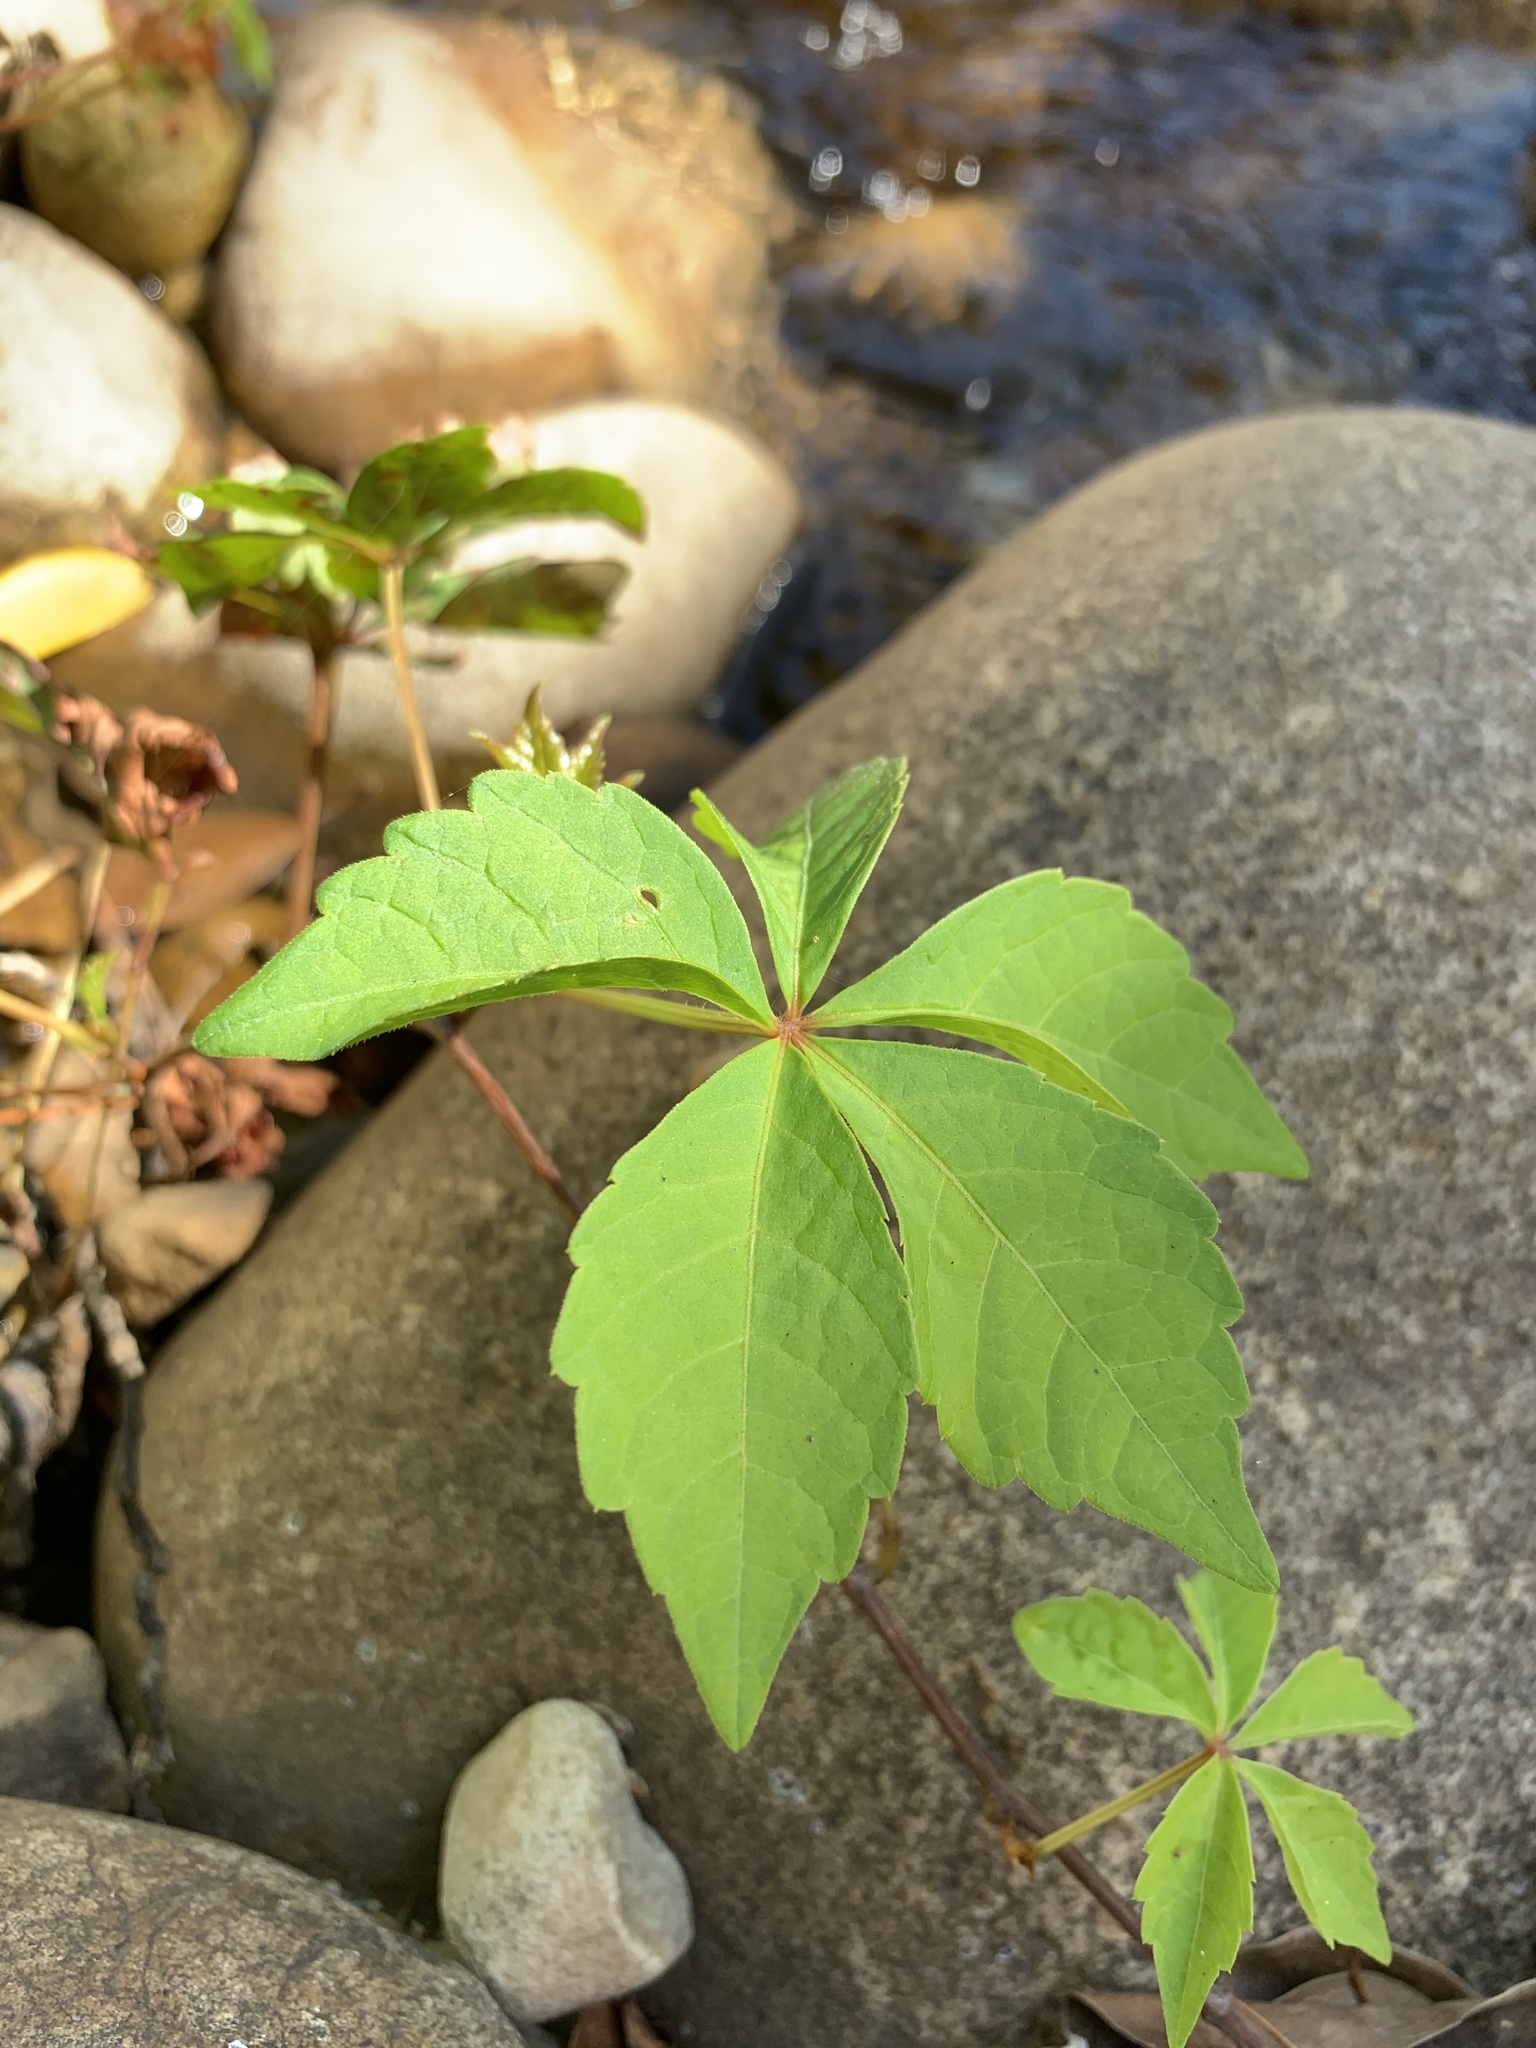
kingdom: Plantae
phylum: Tracheophyta
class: Magnoliopsida
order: Vitales
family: Vitaceae
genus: Parthenocissus
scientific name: Parthenocissus quinquefolia
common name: Virginia-creeper
